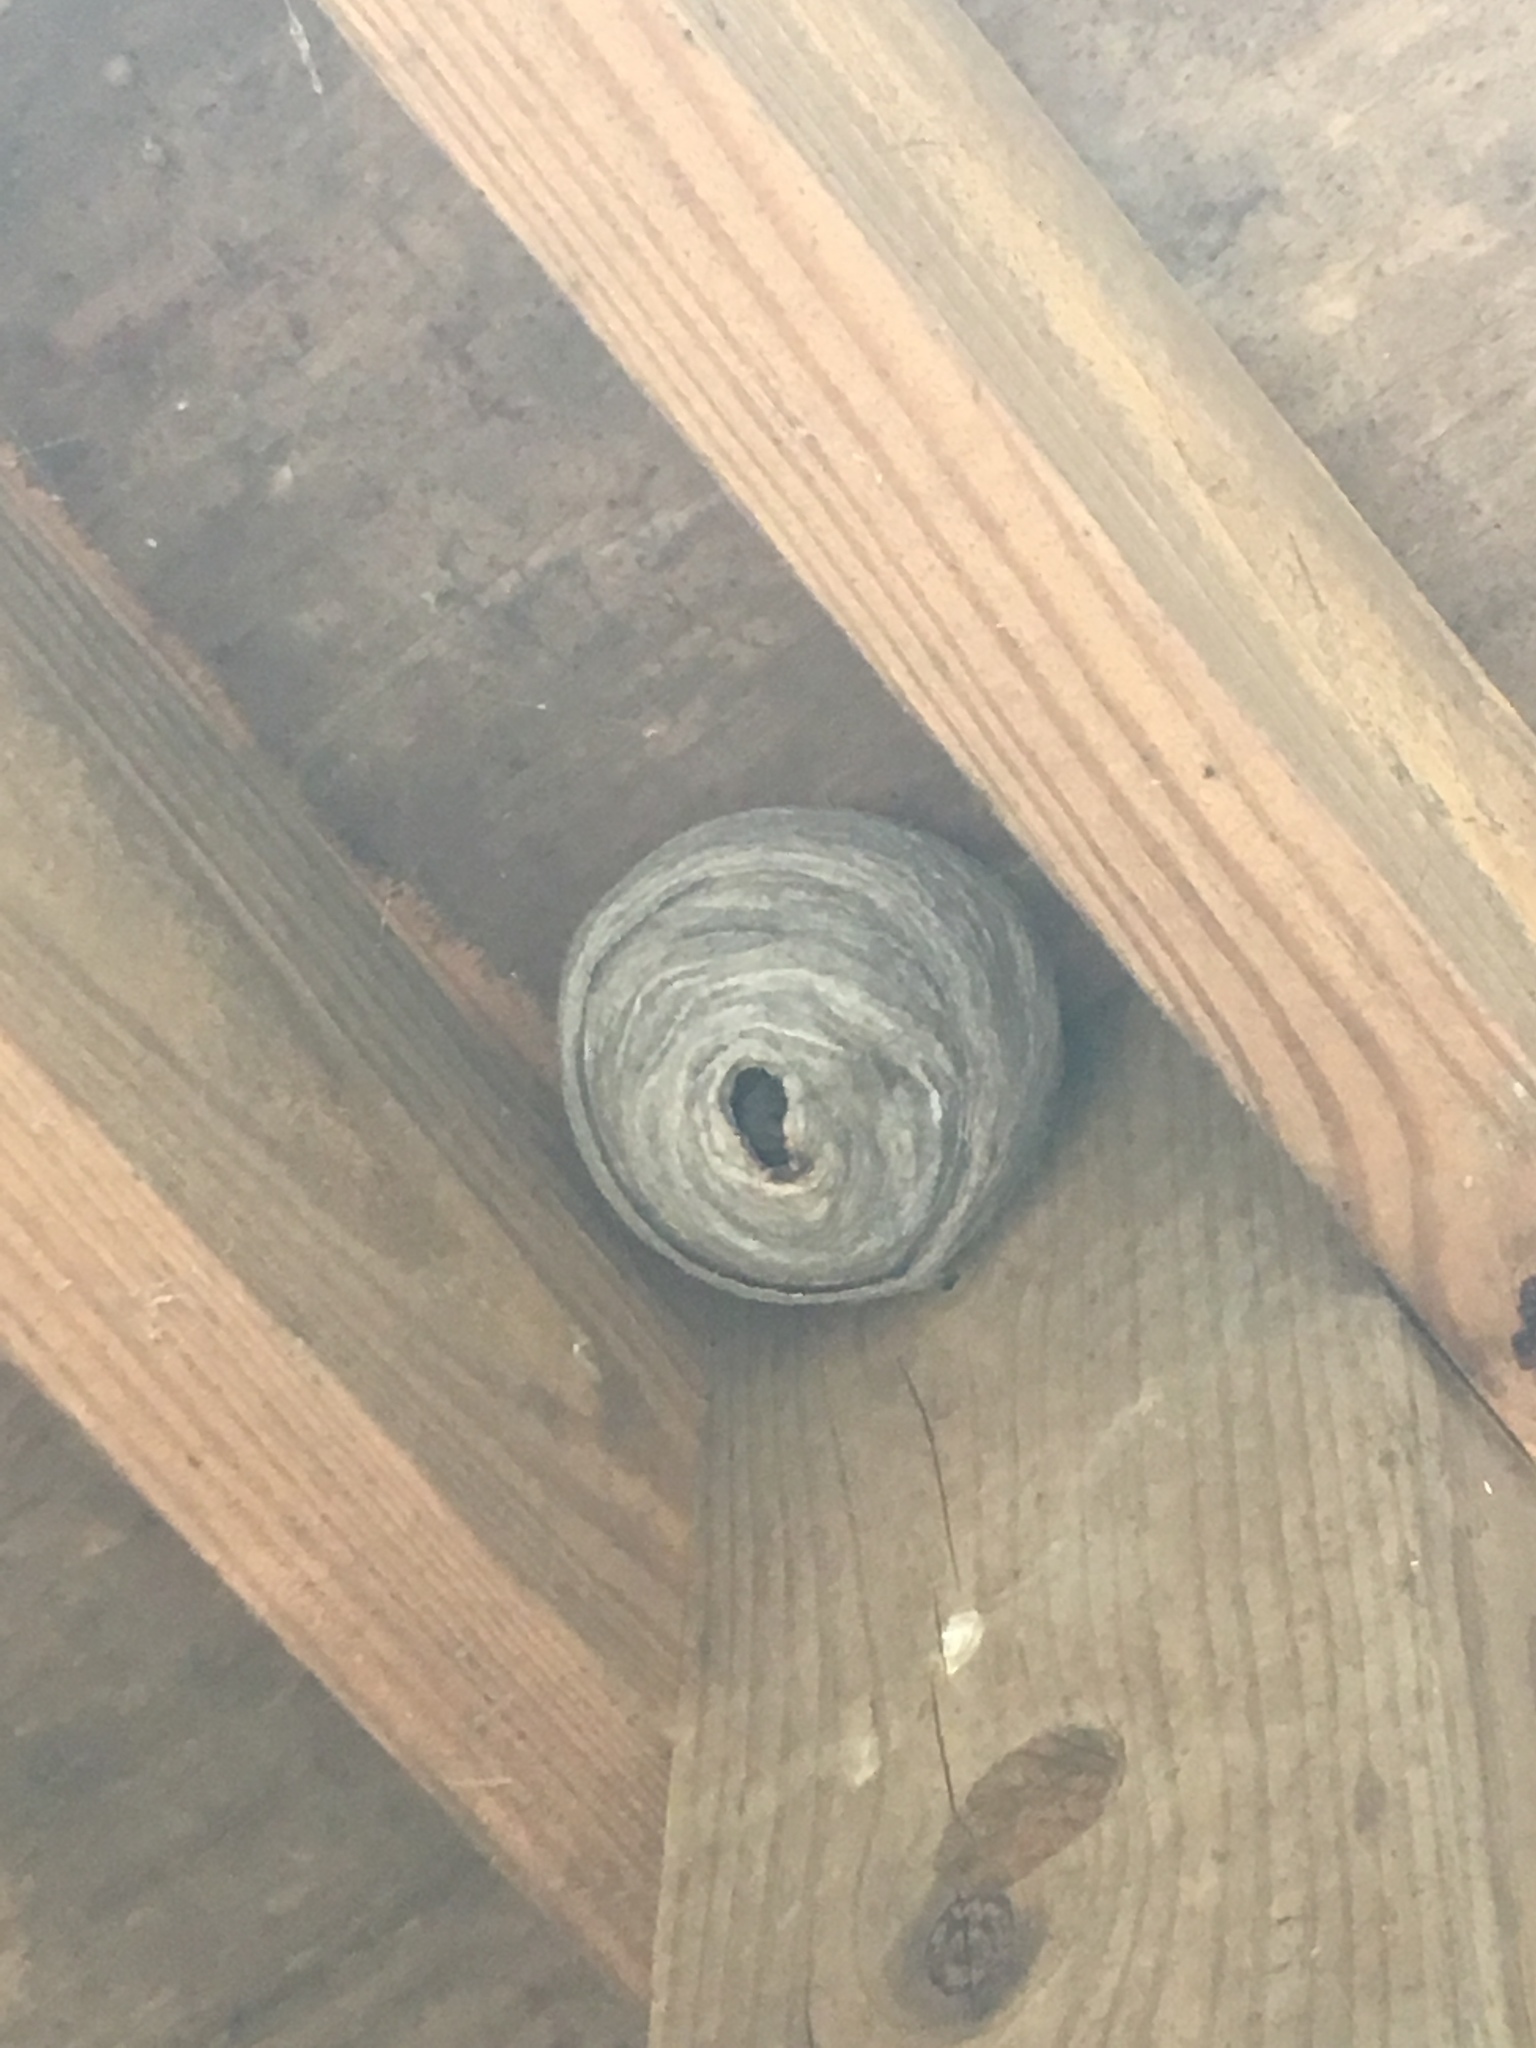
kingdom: Animalia
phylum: Arthropoda
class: Insecta
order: Hymenoptera
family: Vespidae
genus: Dolichovespula
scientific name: Dolichovespula
